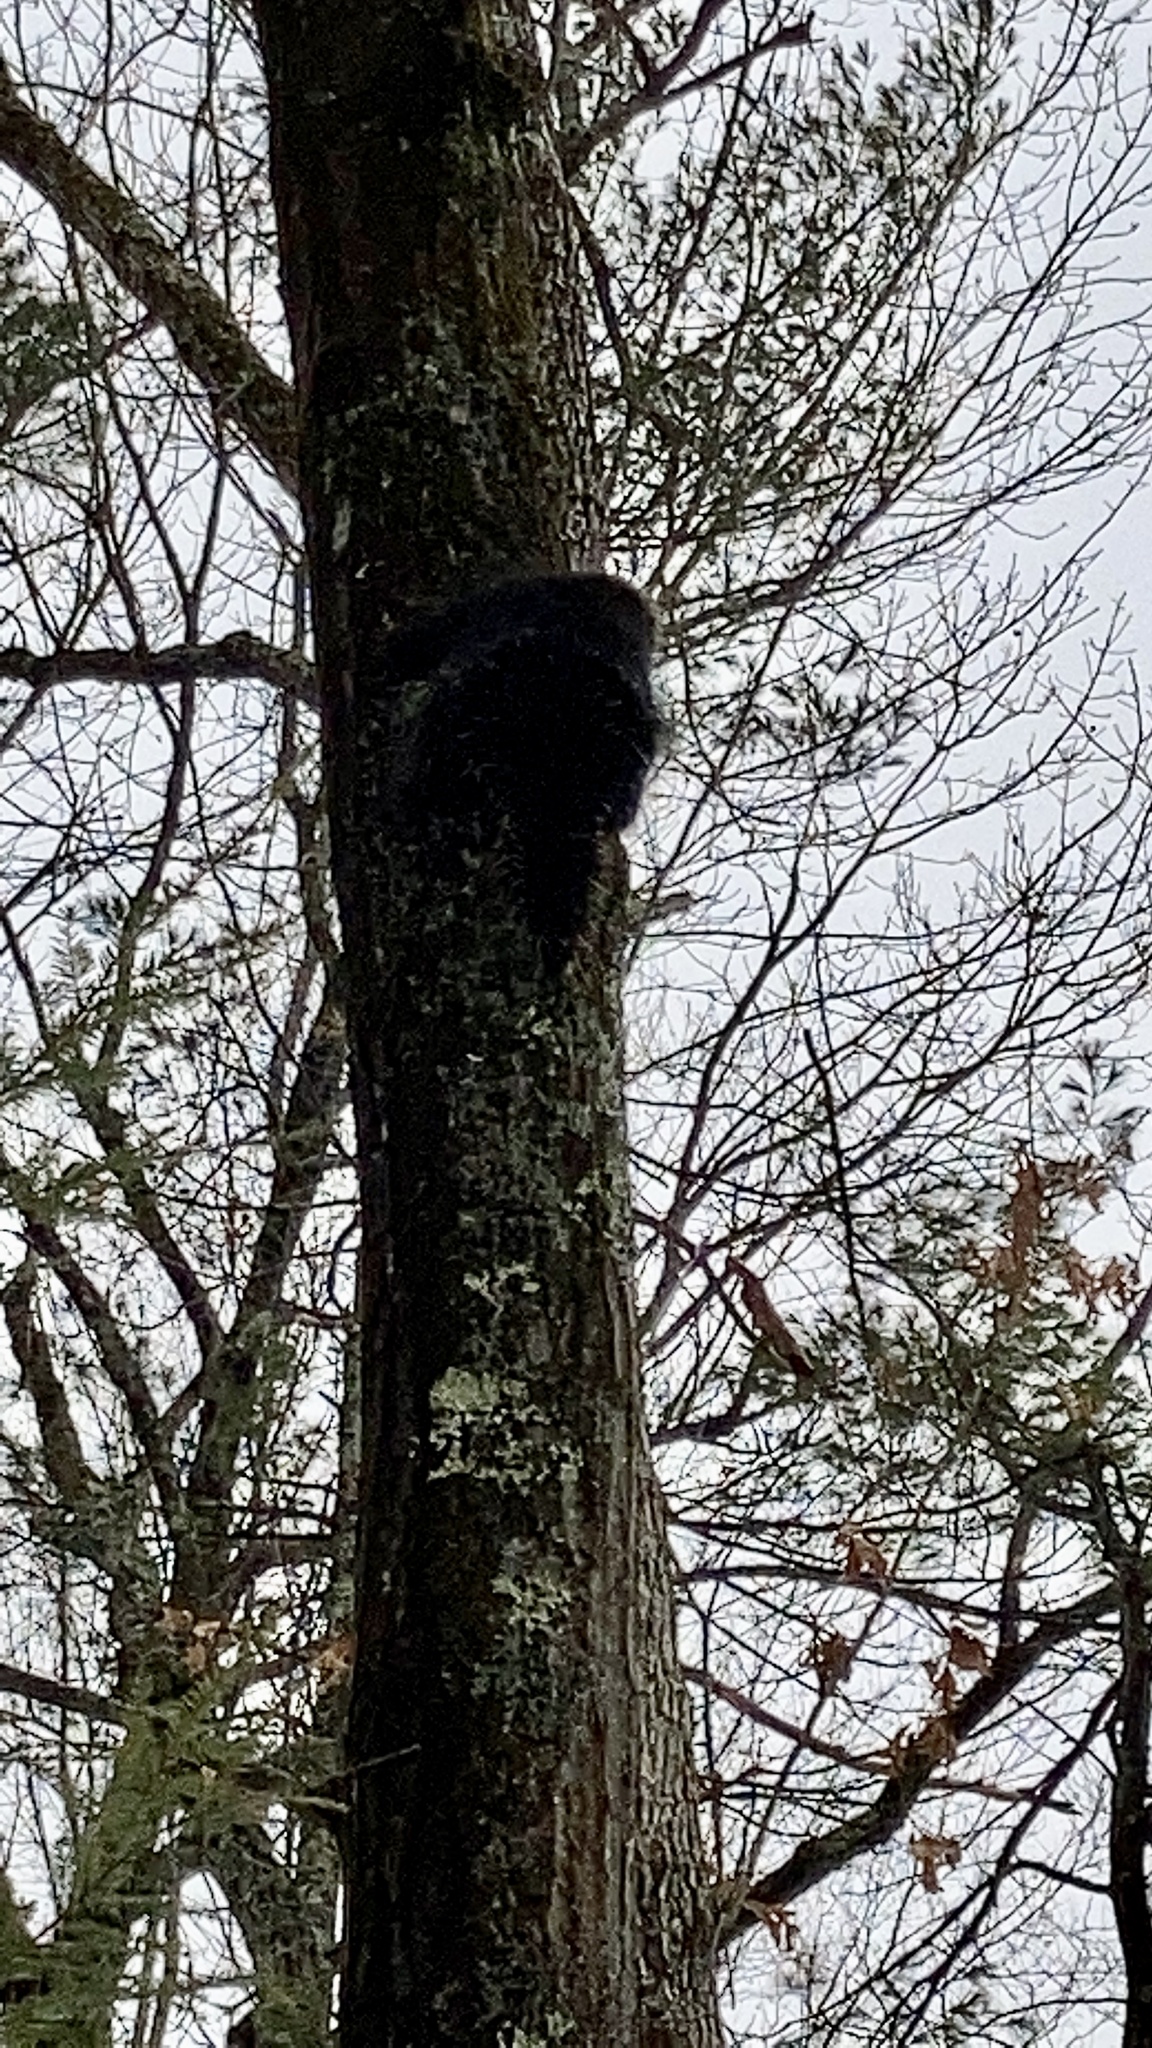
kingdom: Animalia
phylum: Chordata
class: Mammalia
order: Rodentia
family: Erethizontidae
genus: Erethizon
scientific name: Erethizon dorsatus
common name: North american porcupine
